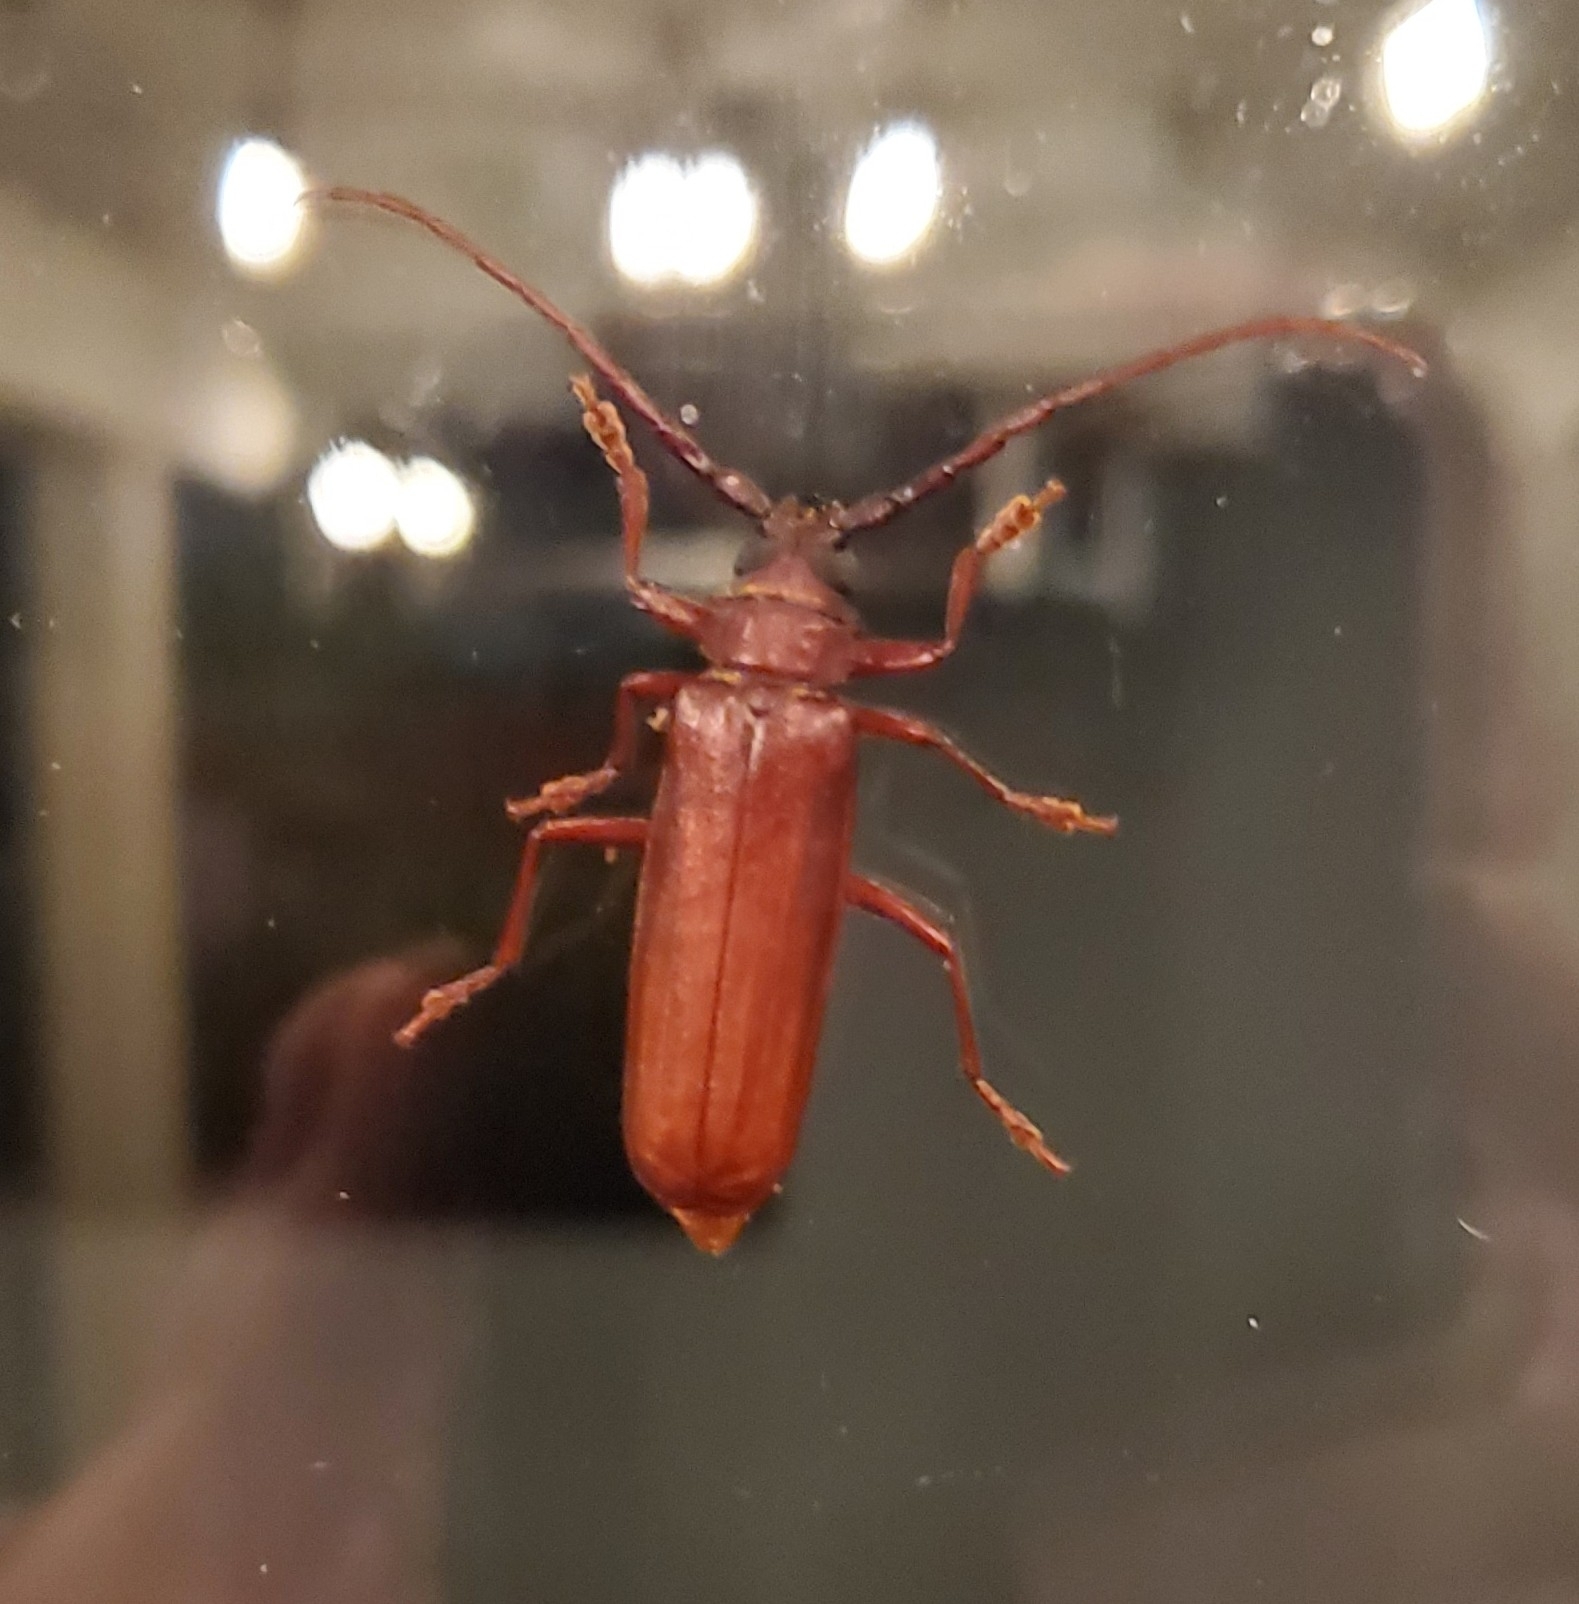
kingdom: Animalia
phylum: Arthropoda
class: Insecta
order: Coleoptera
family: Cerambycidae
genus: Orthosoma
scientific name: Orthosoma brunneum
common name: Brown prionid beetle
